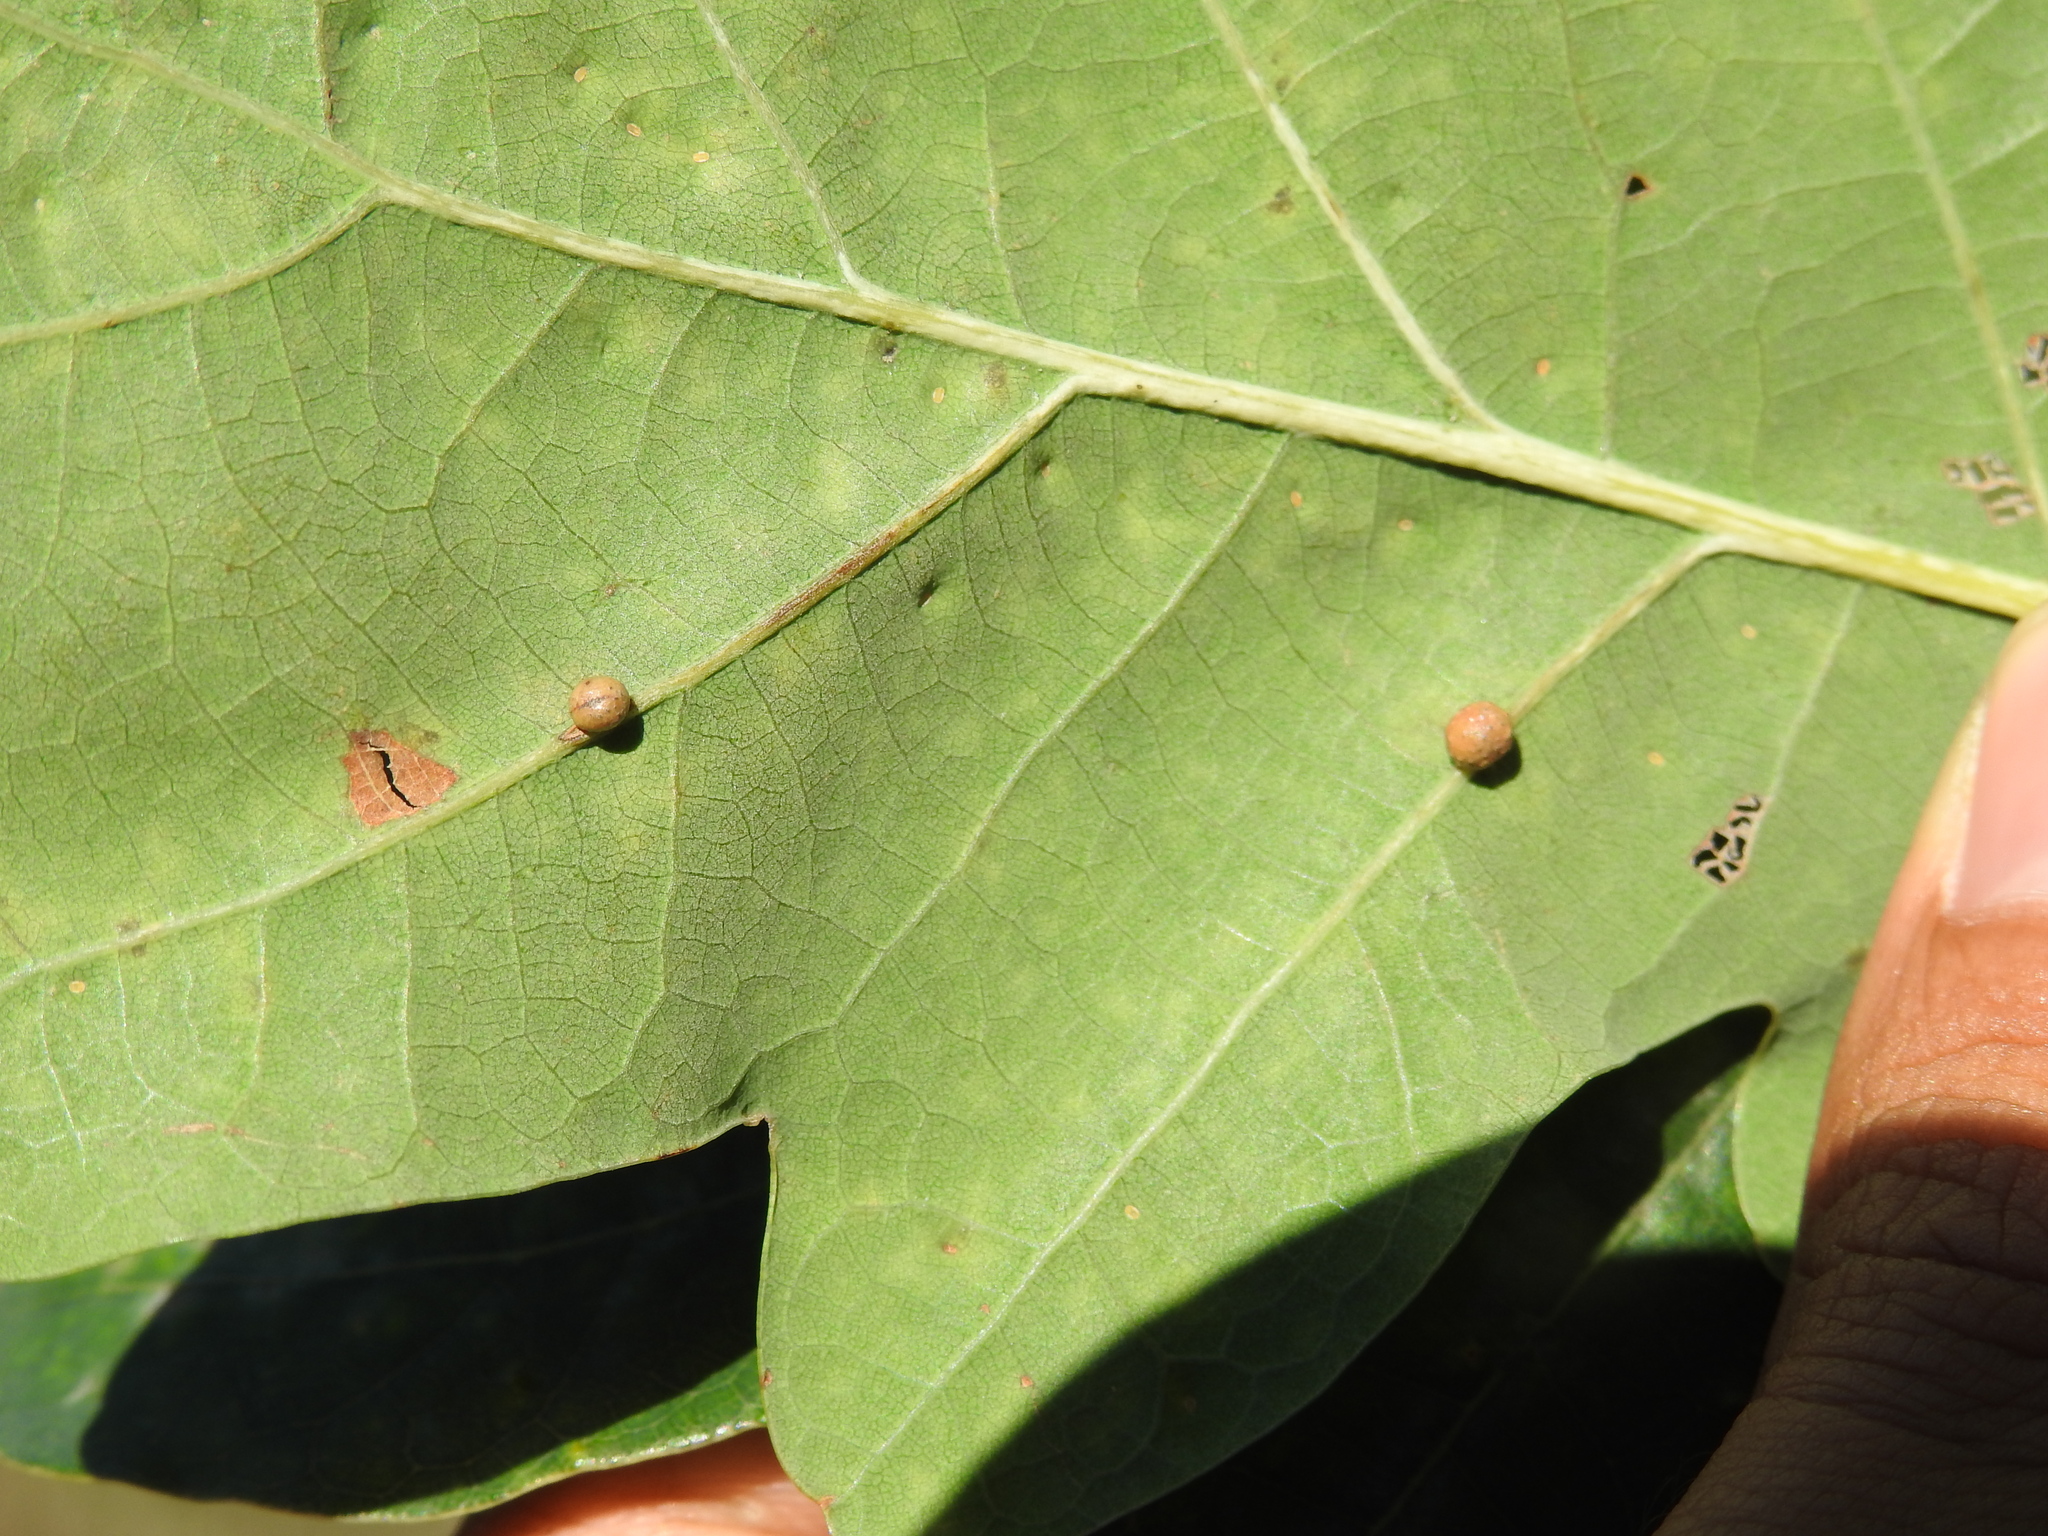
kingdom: Animalia
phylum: Arthropoda
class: Insecta
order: Hymenoptera
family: Cynipidae
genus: Neuroterus
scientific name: Neuroterus anthracinus
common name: Oyster gall
